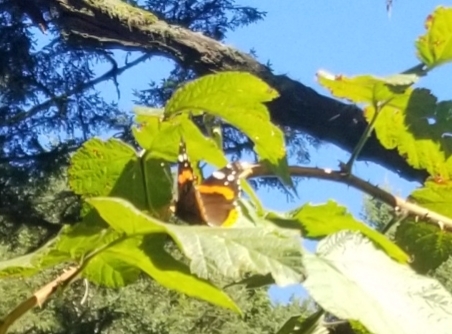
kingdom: Animalia
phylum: Arthropoda
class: Insecta
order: Lepidoptera
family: Nymphalidae
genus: Vanessa
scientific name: Vanessa atalanta
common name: Red admiral
